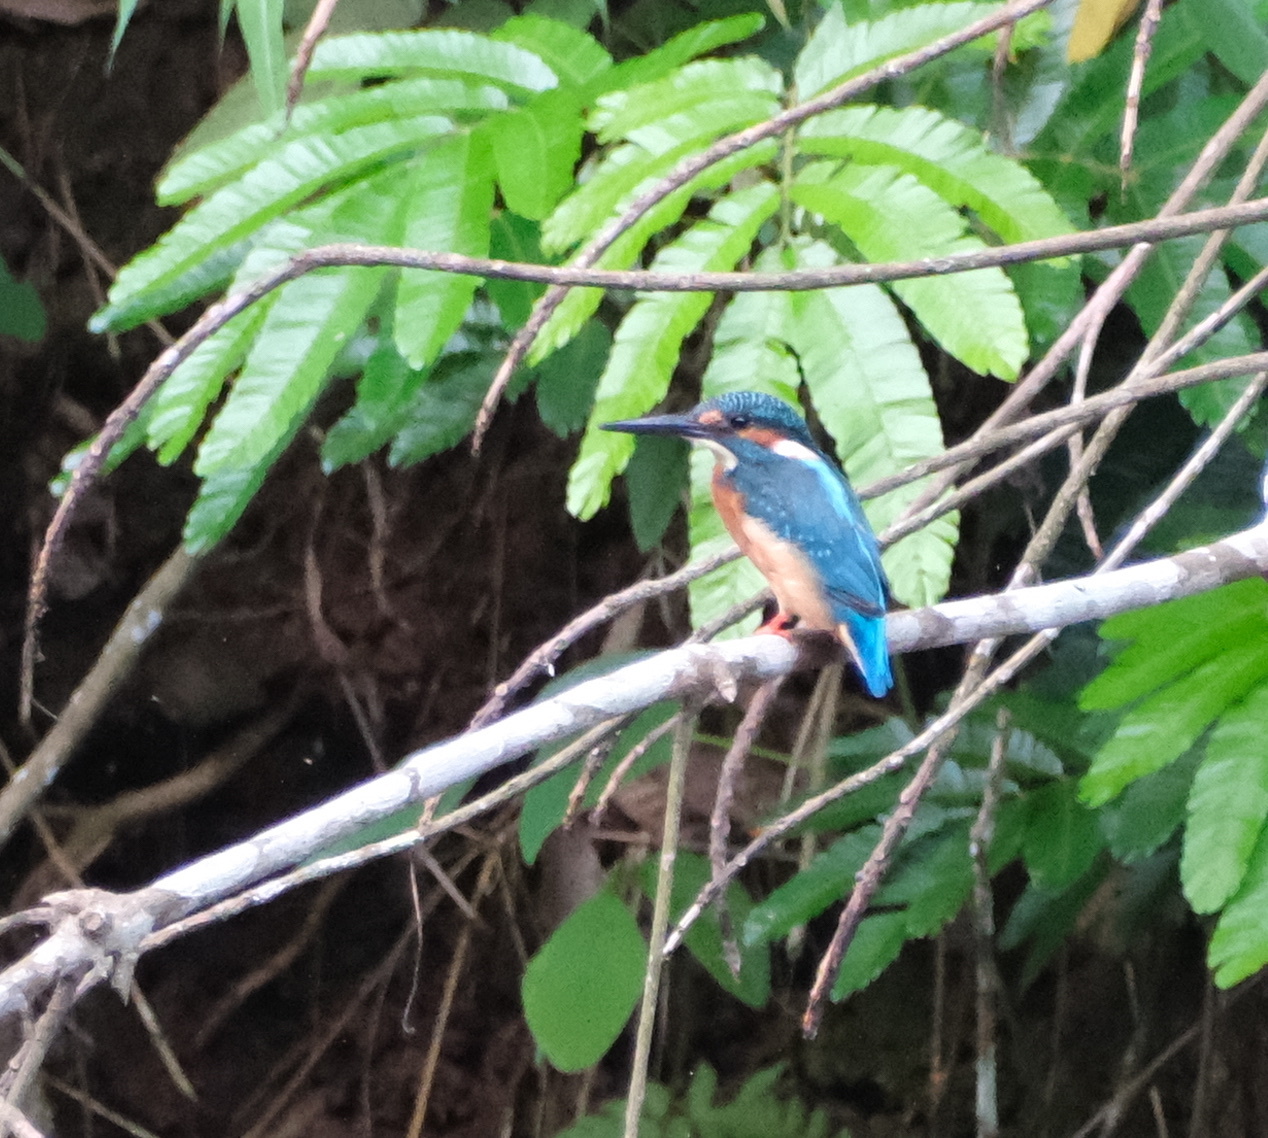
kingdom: Animalia
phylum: Chordata
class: Aves
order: Coraciiformes
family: Alcedinidae
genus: Alcedo
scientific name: Alcedo atthis
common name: Common kingfisher
